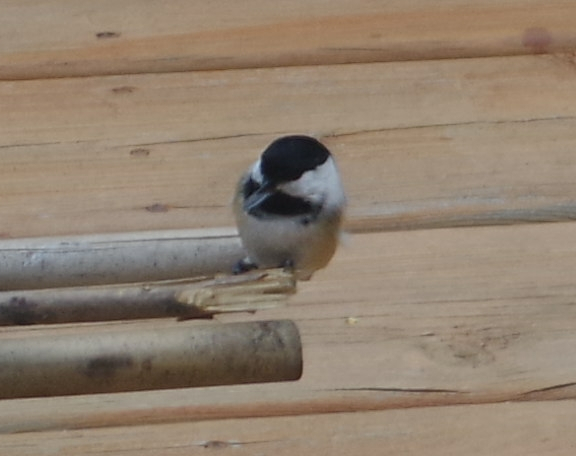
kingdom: Animalia
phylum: Chordata
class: Aves
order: Passeriformes
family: Paridae
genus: Poecile
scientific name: Poecile atricapillus
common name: Black-capped chickadee
